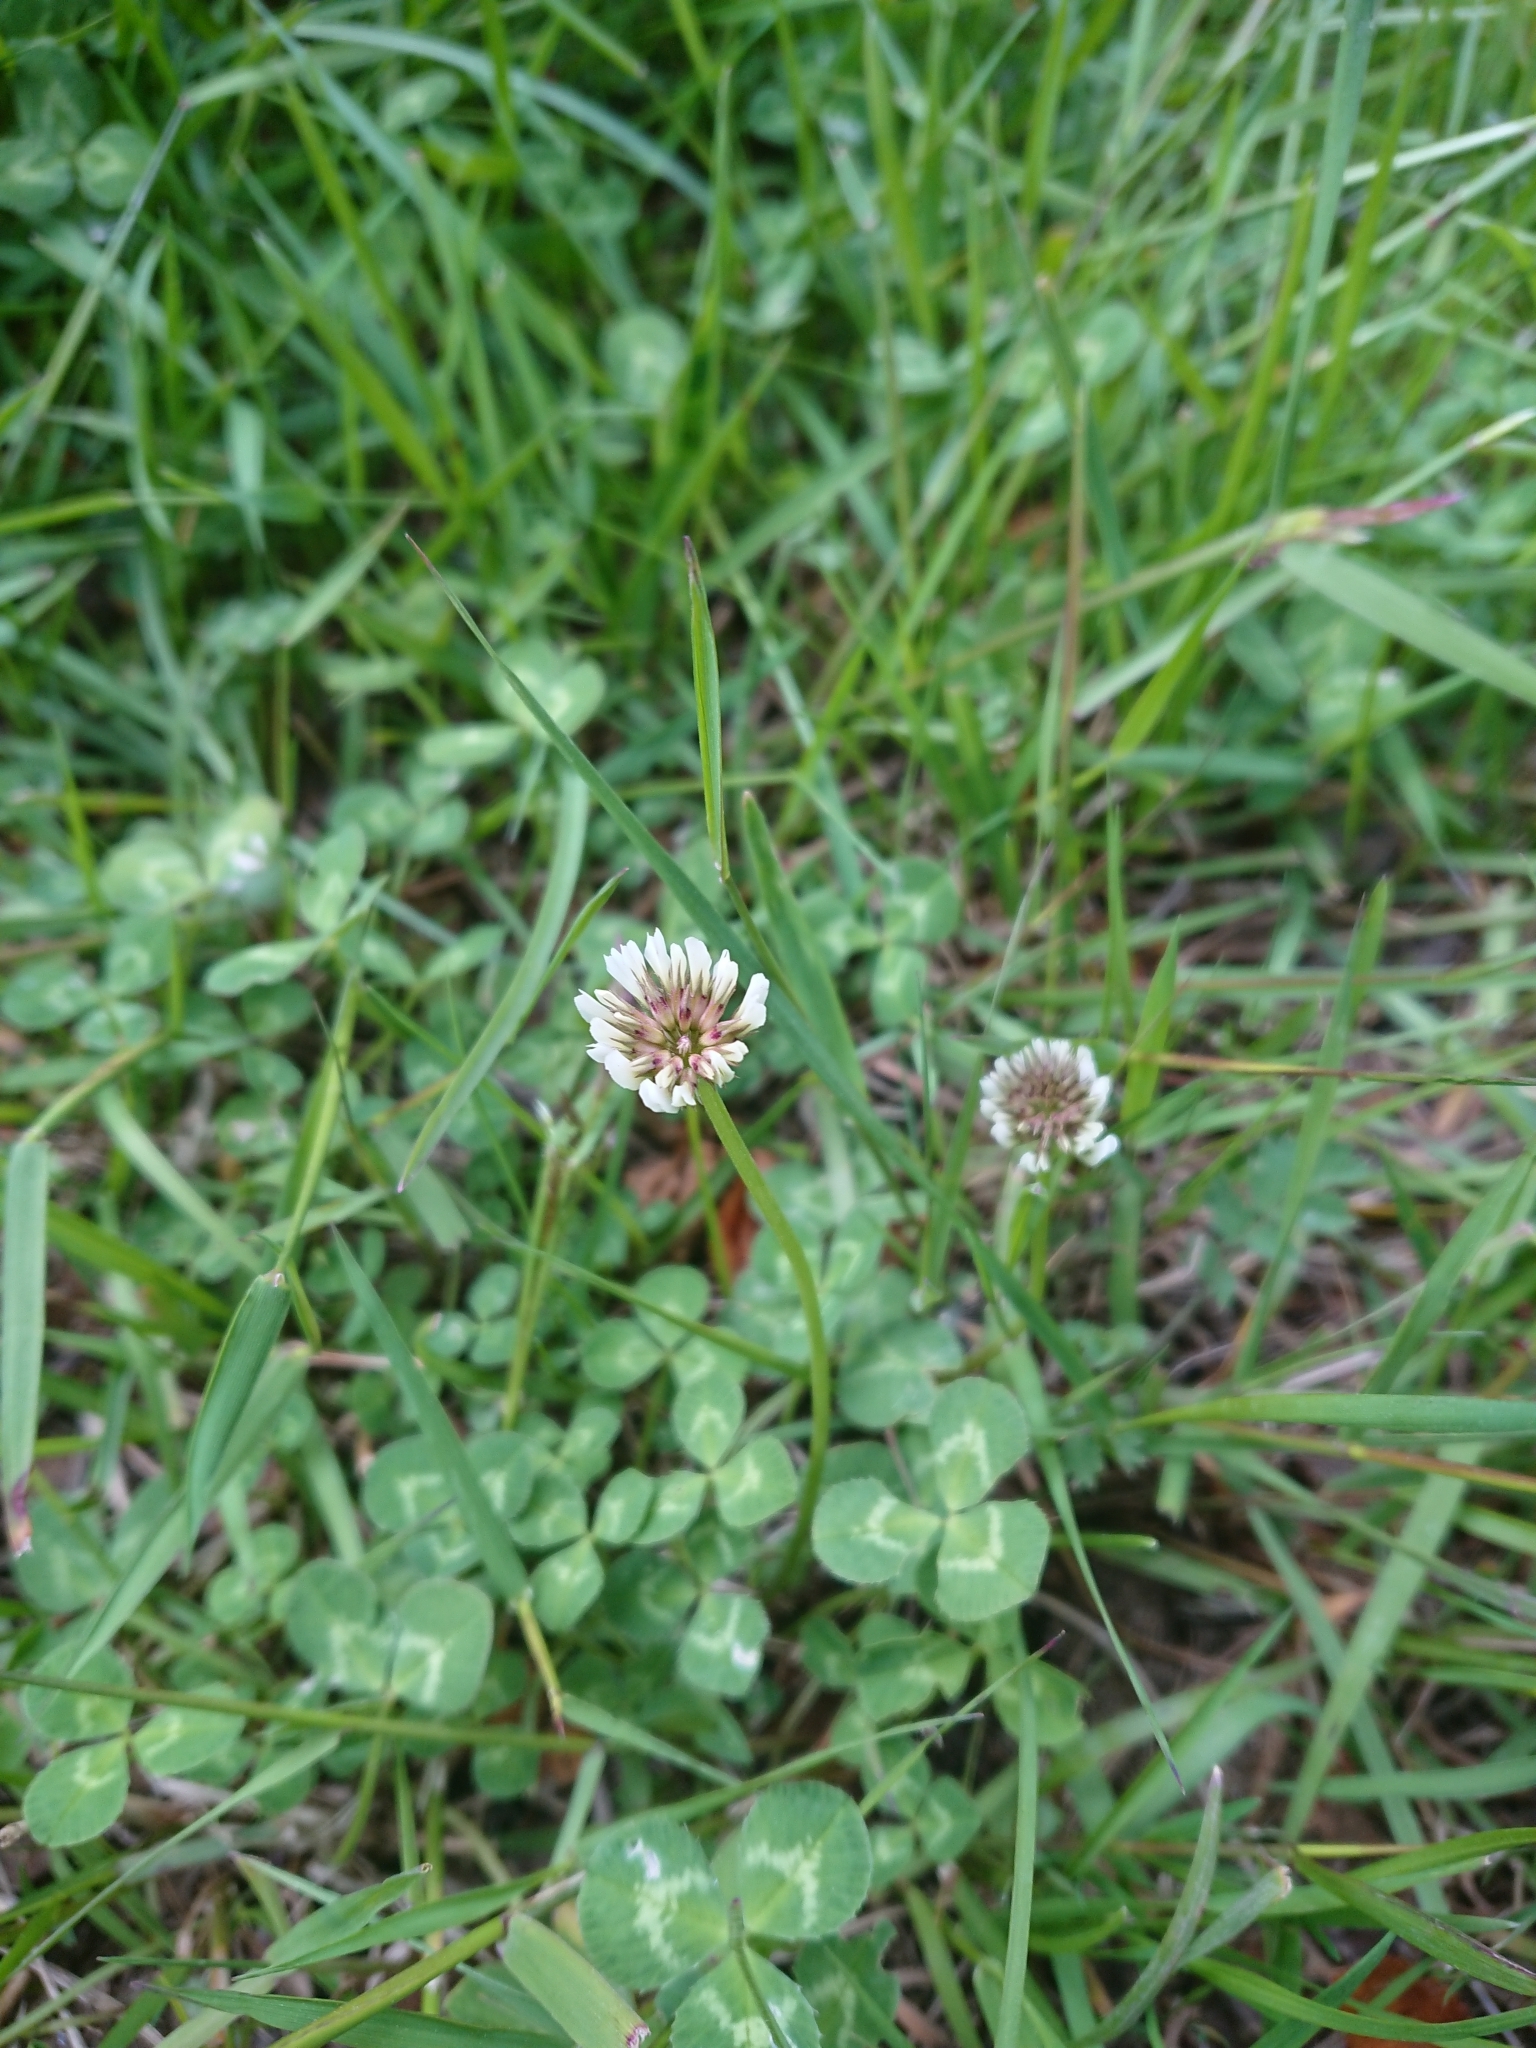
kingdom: Plantae
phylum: Tracheophyta
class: Magnoliopsida
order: Fabales
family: Fabaceae
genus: Trifolium
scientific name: Trifolium repens
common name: White clover
